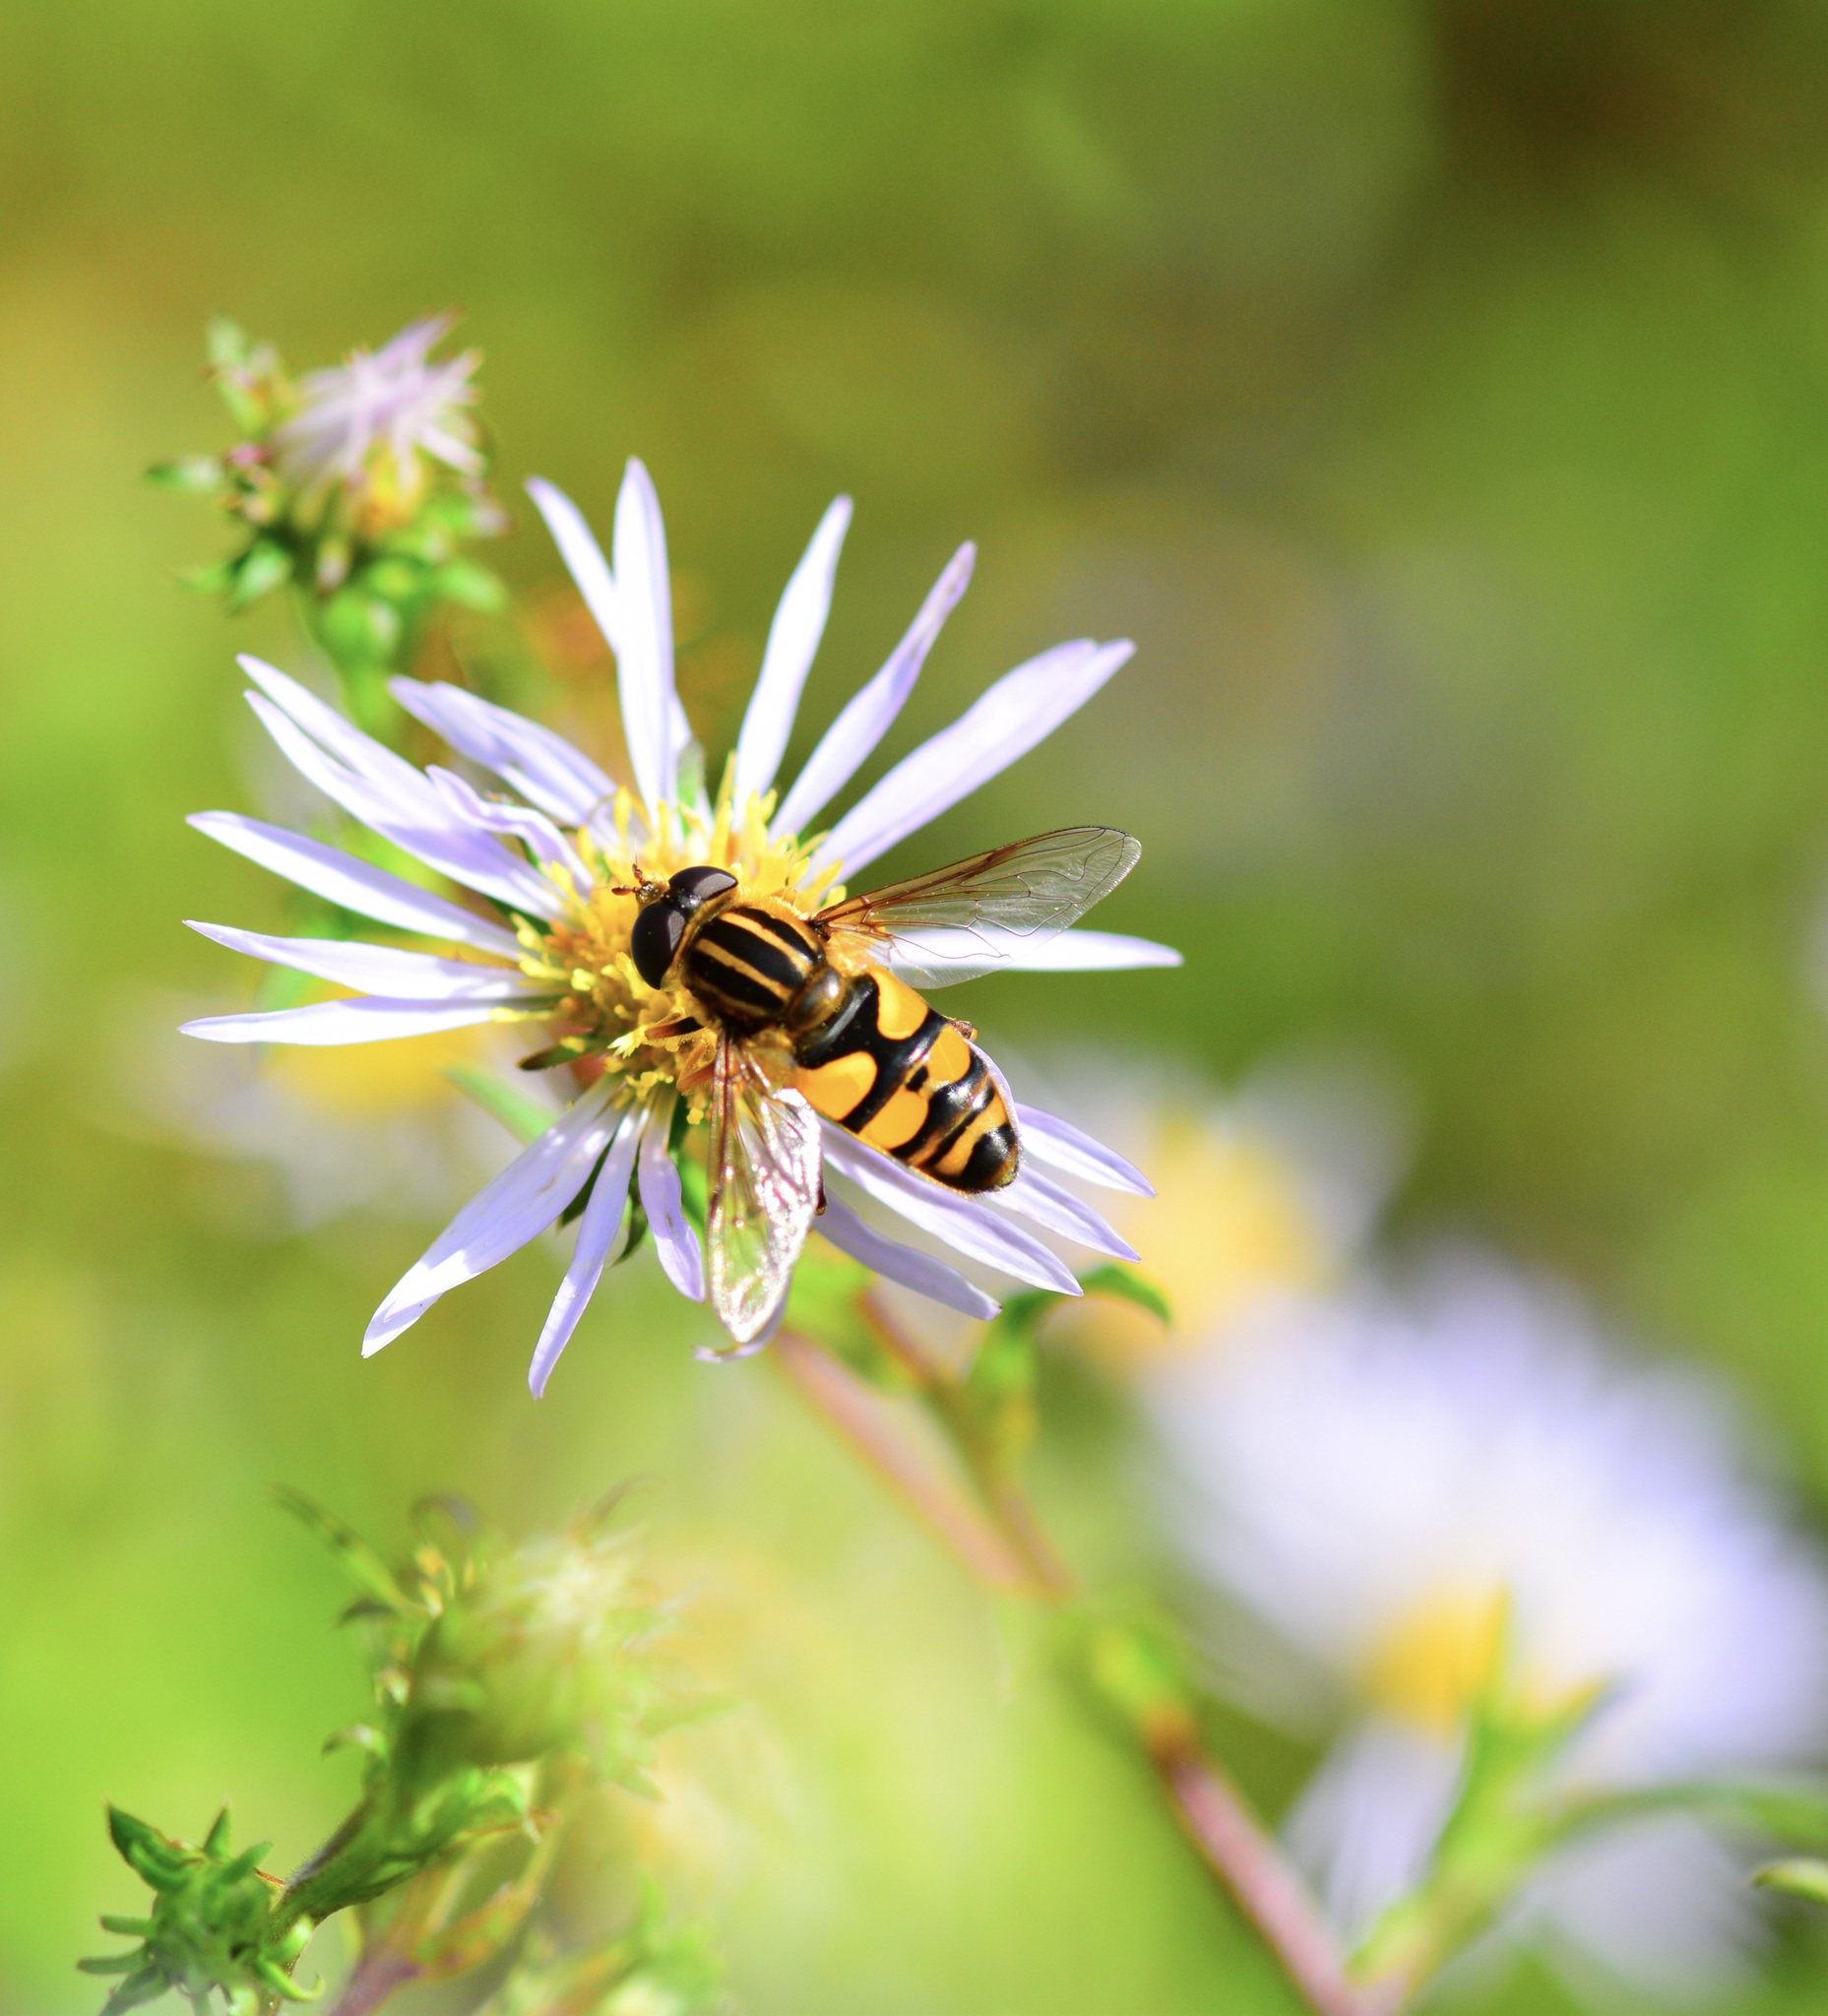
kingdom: Animalia
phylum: Arthropoda
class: Insecta
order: Diptera
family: Syrphidae
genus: Helophilus
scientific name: Helophilus fasciatus
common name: Narrow-headed marsh fly
